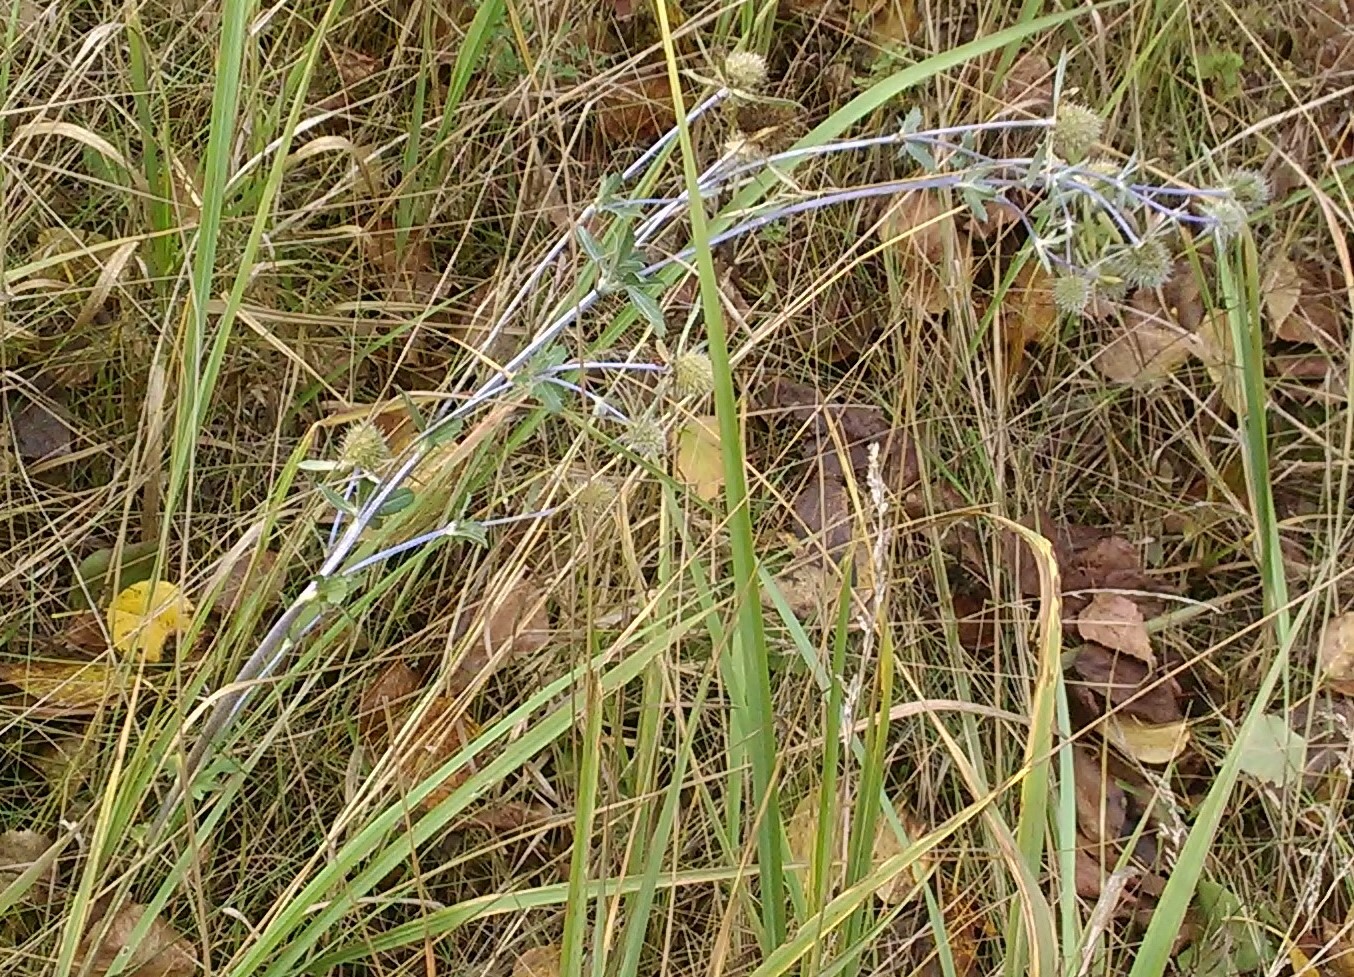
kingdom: Plantae
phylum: Tracheophyta
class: Magnoliopsida
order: Apiales
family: Apiaceae
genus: Eryngium
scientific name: Eryngium planum
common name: Blue eryngo
